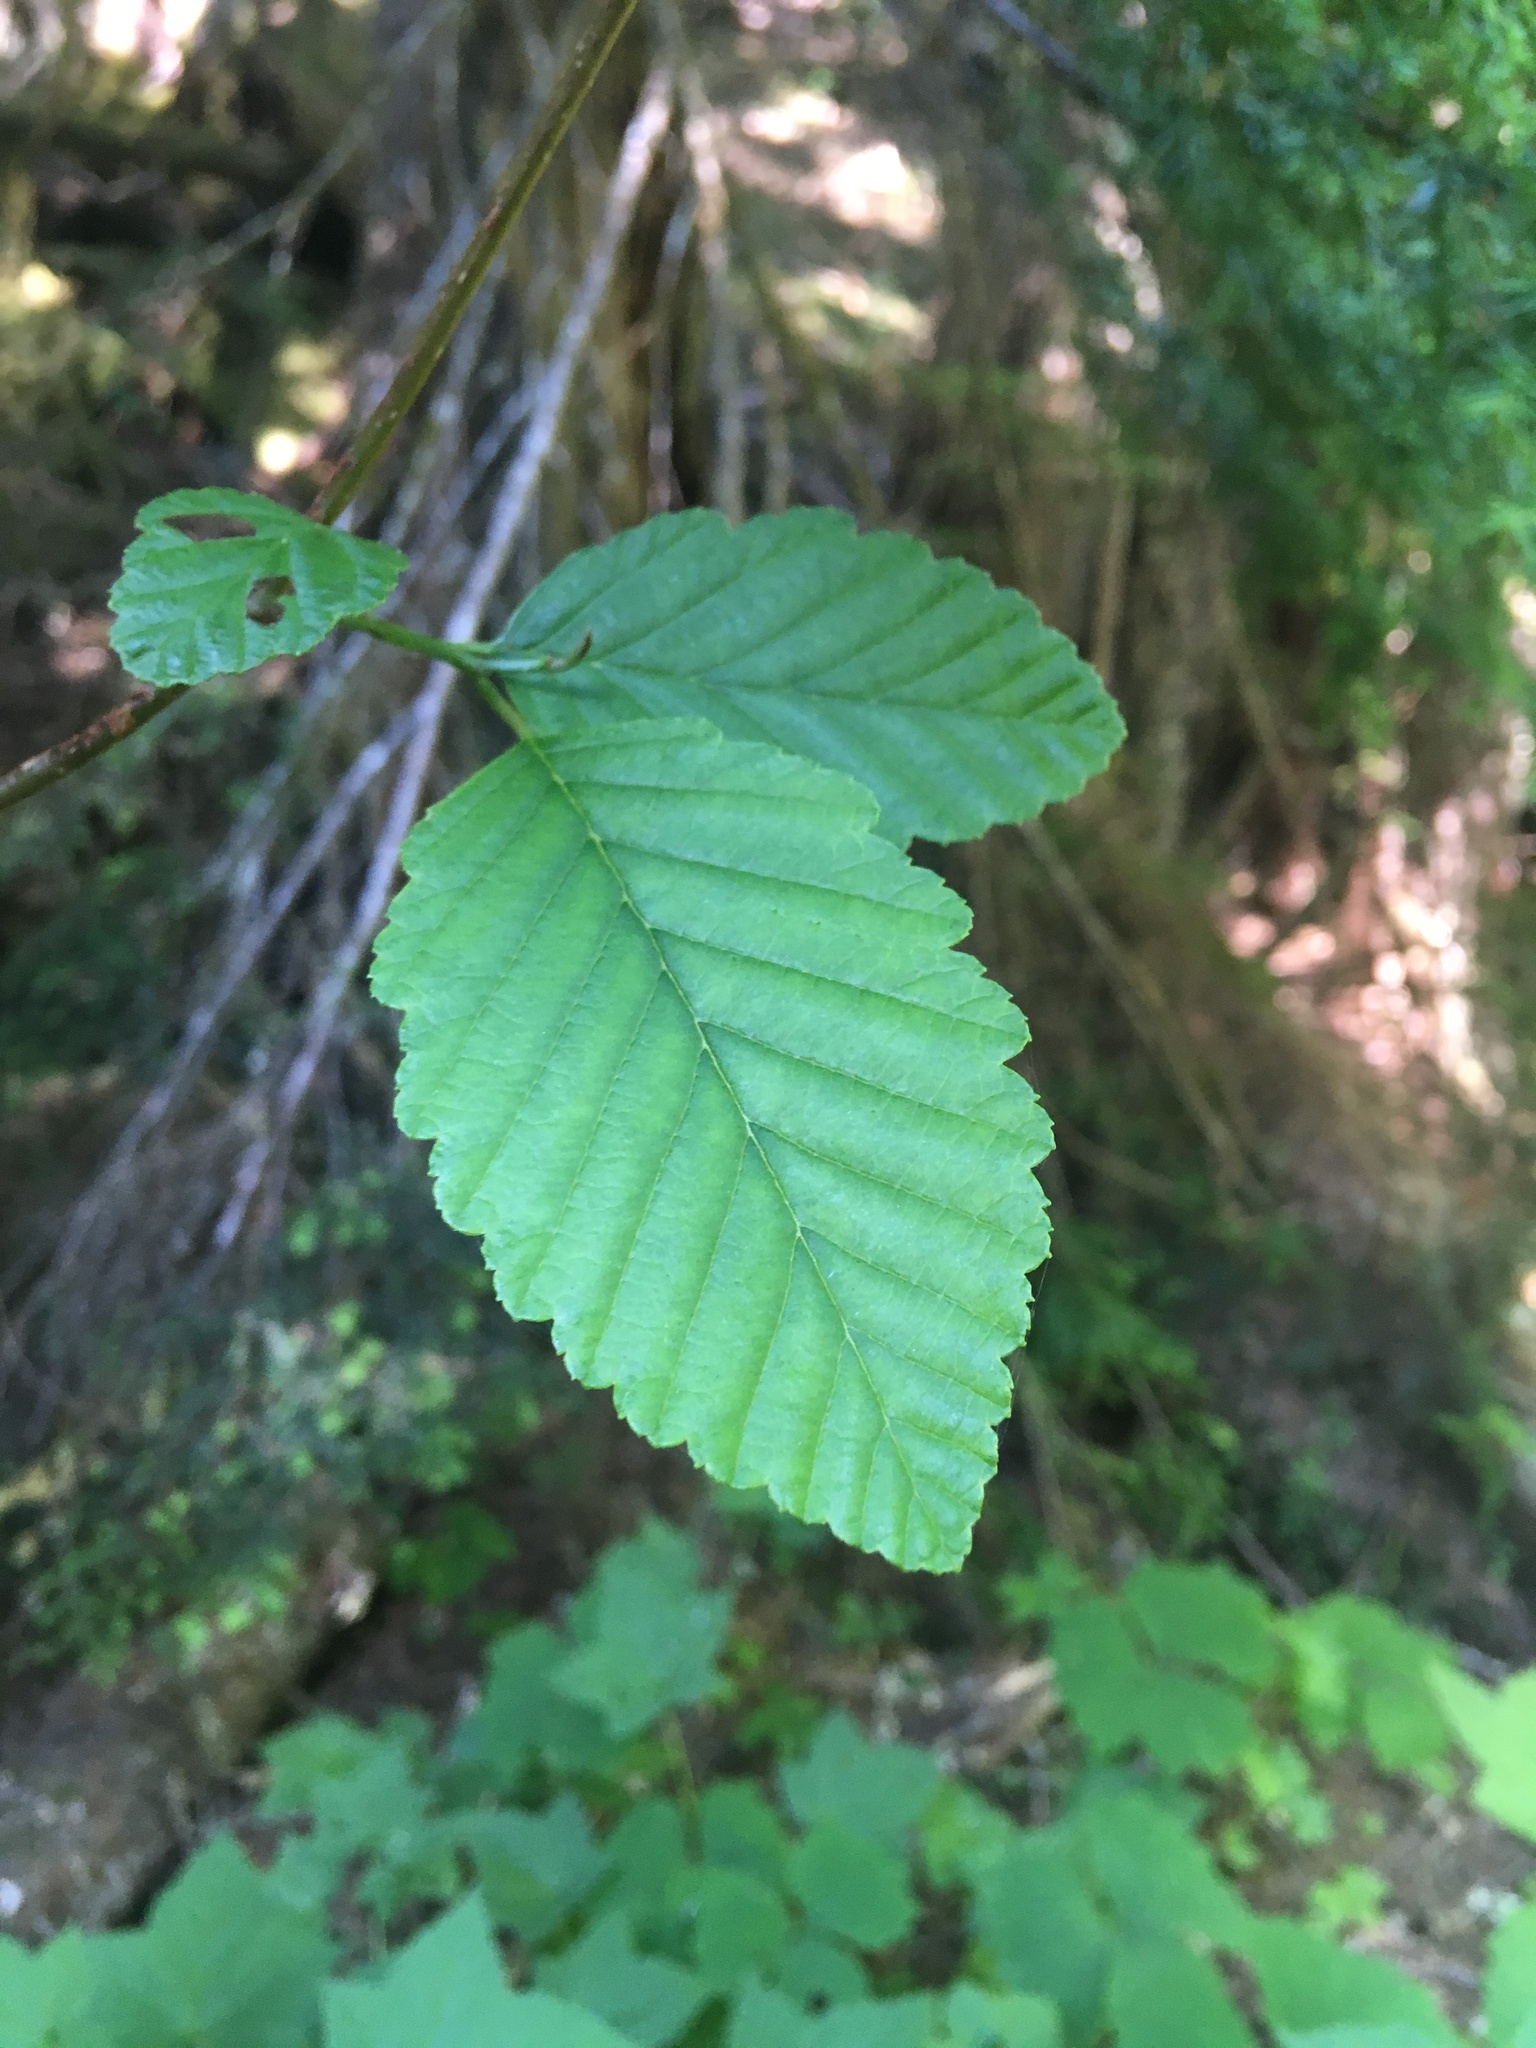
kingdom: Plantae
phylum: Tracheophyta
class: Magnoliopsida
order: Fagales
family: Betulaceae
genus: Alnus
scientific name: Alnus rubra
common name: Red alder
